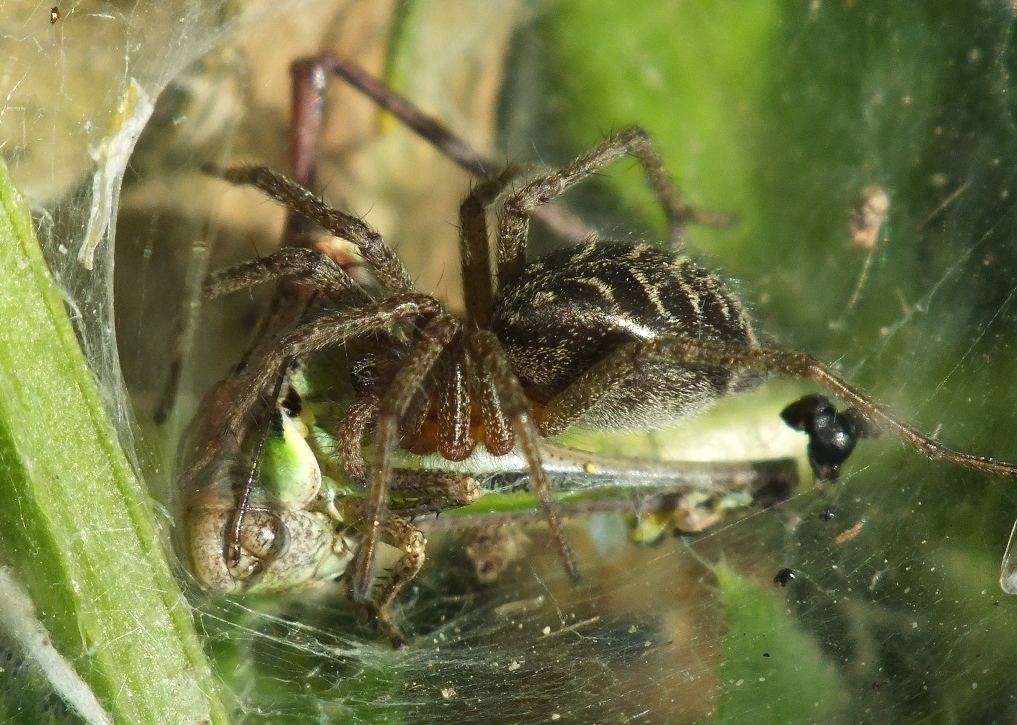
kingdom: Animalia
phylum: Arthropoda
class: Arachnida
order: Araneae
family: Agelenidae
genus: Agelena
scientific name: Agelena labyrinthica
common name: Labyrinth spider
